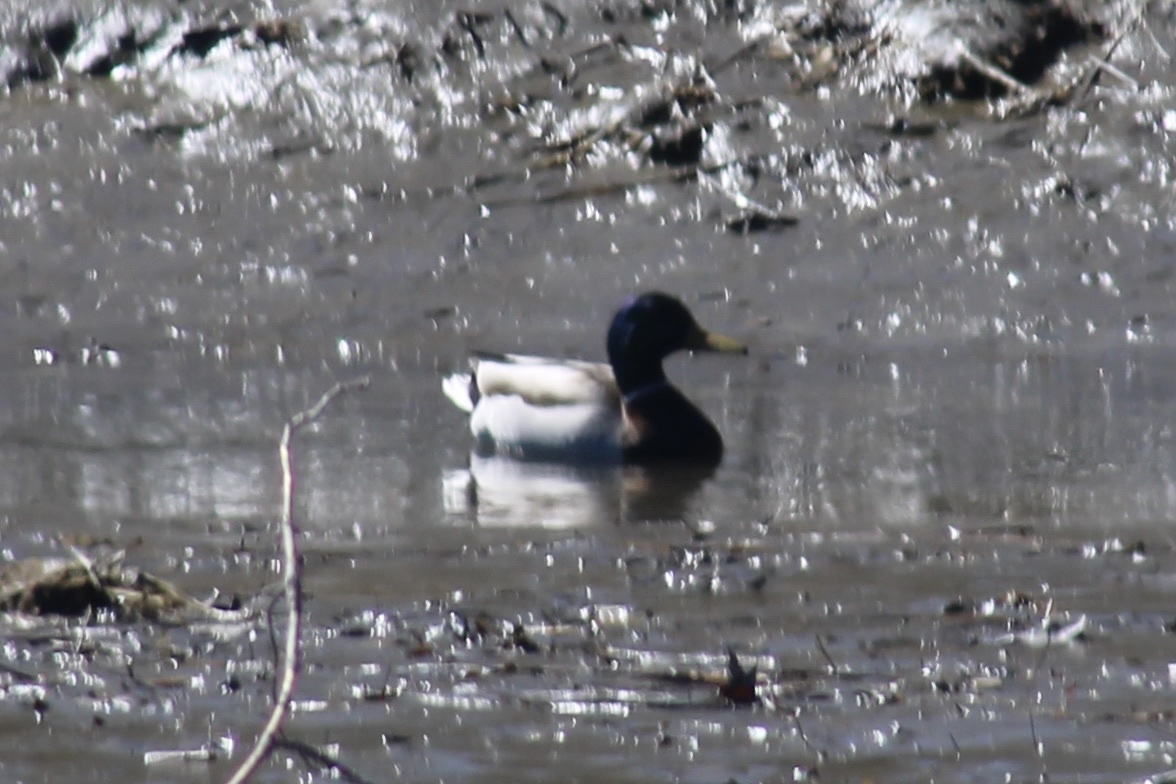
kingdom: Animalia
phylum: Chordata
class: Aves
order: Anseriformes
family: Anatidae
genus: Anas
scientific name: Anas platyrhynchos
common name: Mallard
